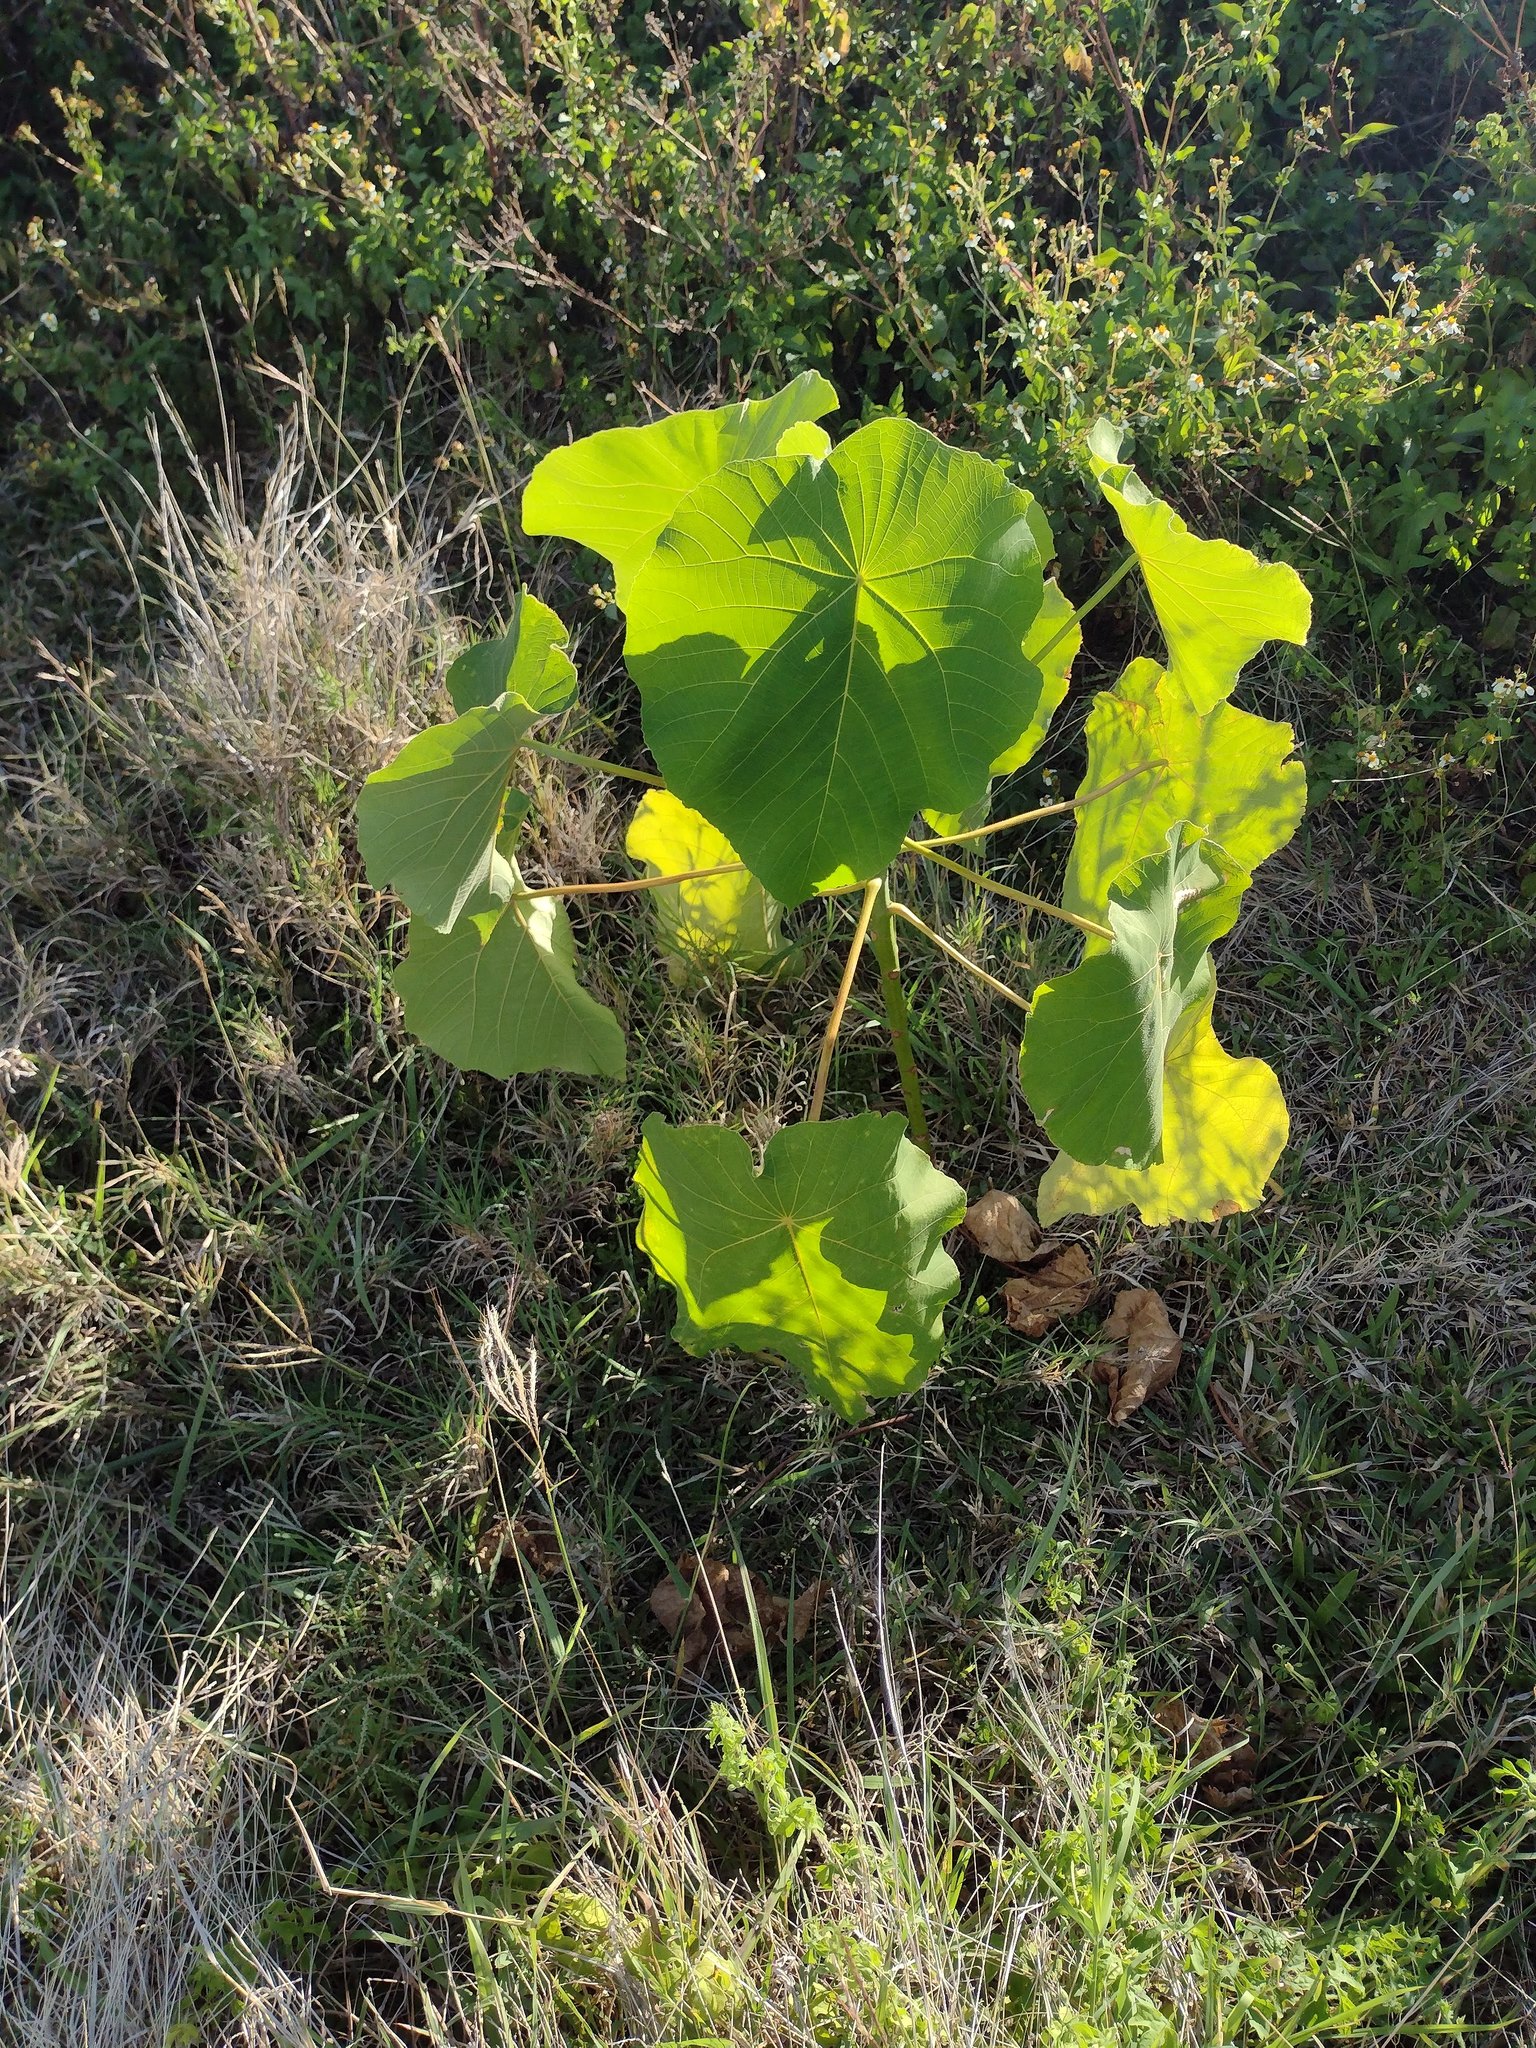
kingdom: Plantae
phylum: Tracheophyta
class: Magnoliopsida
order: Malpighiales
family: Euphorbiaceae
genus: Macaranga
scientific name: Macaranga tanarius
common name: Parasol leaf tree
